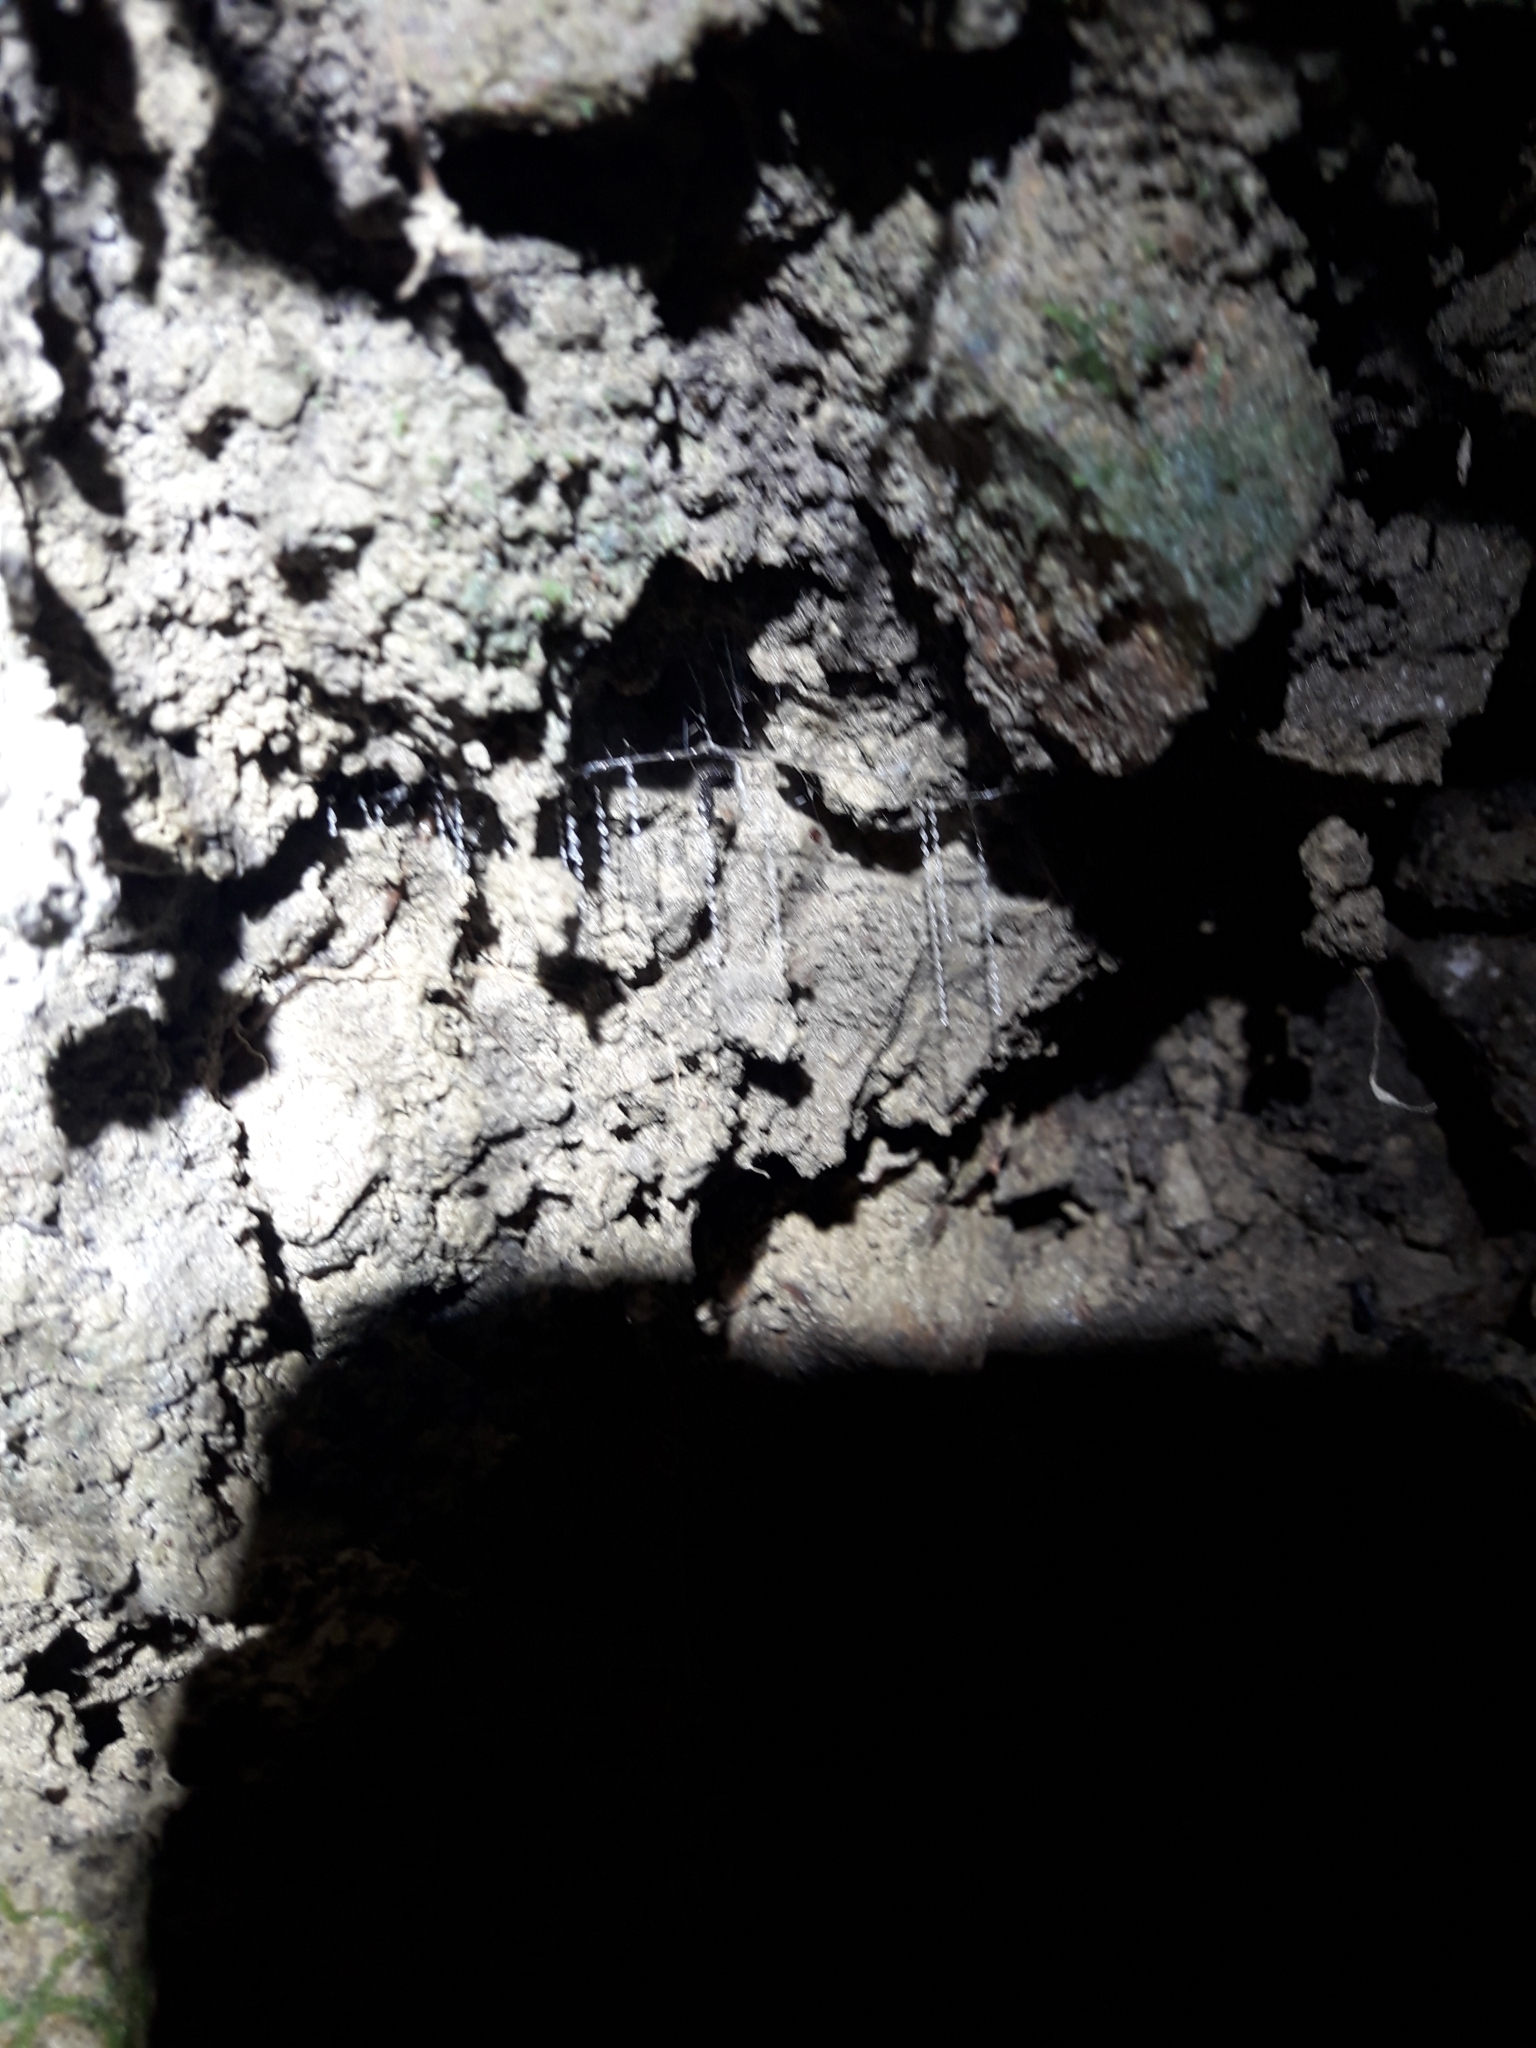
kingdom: Animalia
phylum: Arthropoda
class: Insecta
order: Diptera
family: Keroplatidae
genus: Arachnocampa
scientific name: Arachnocampa luminosa
